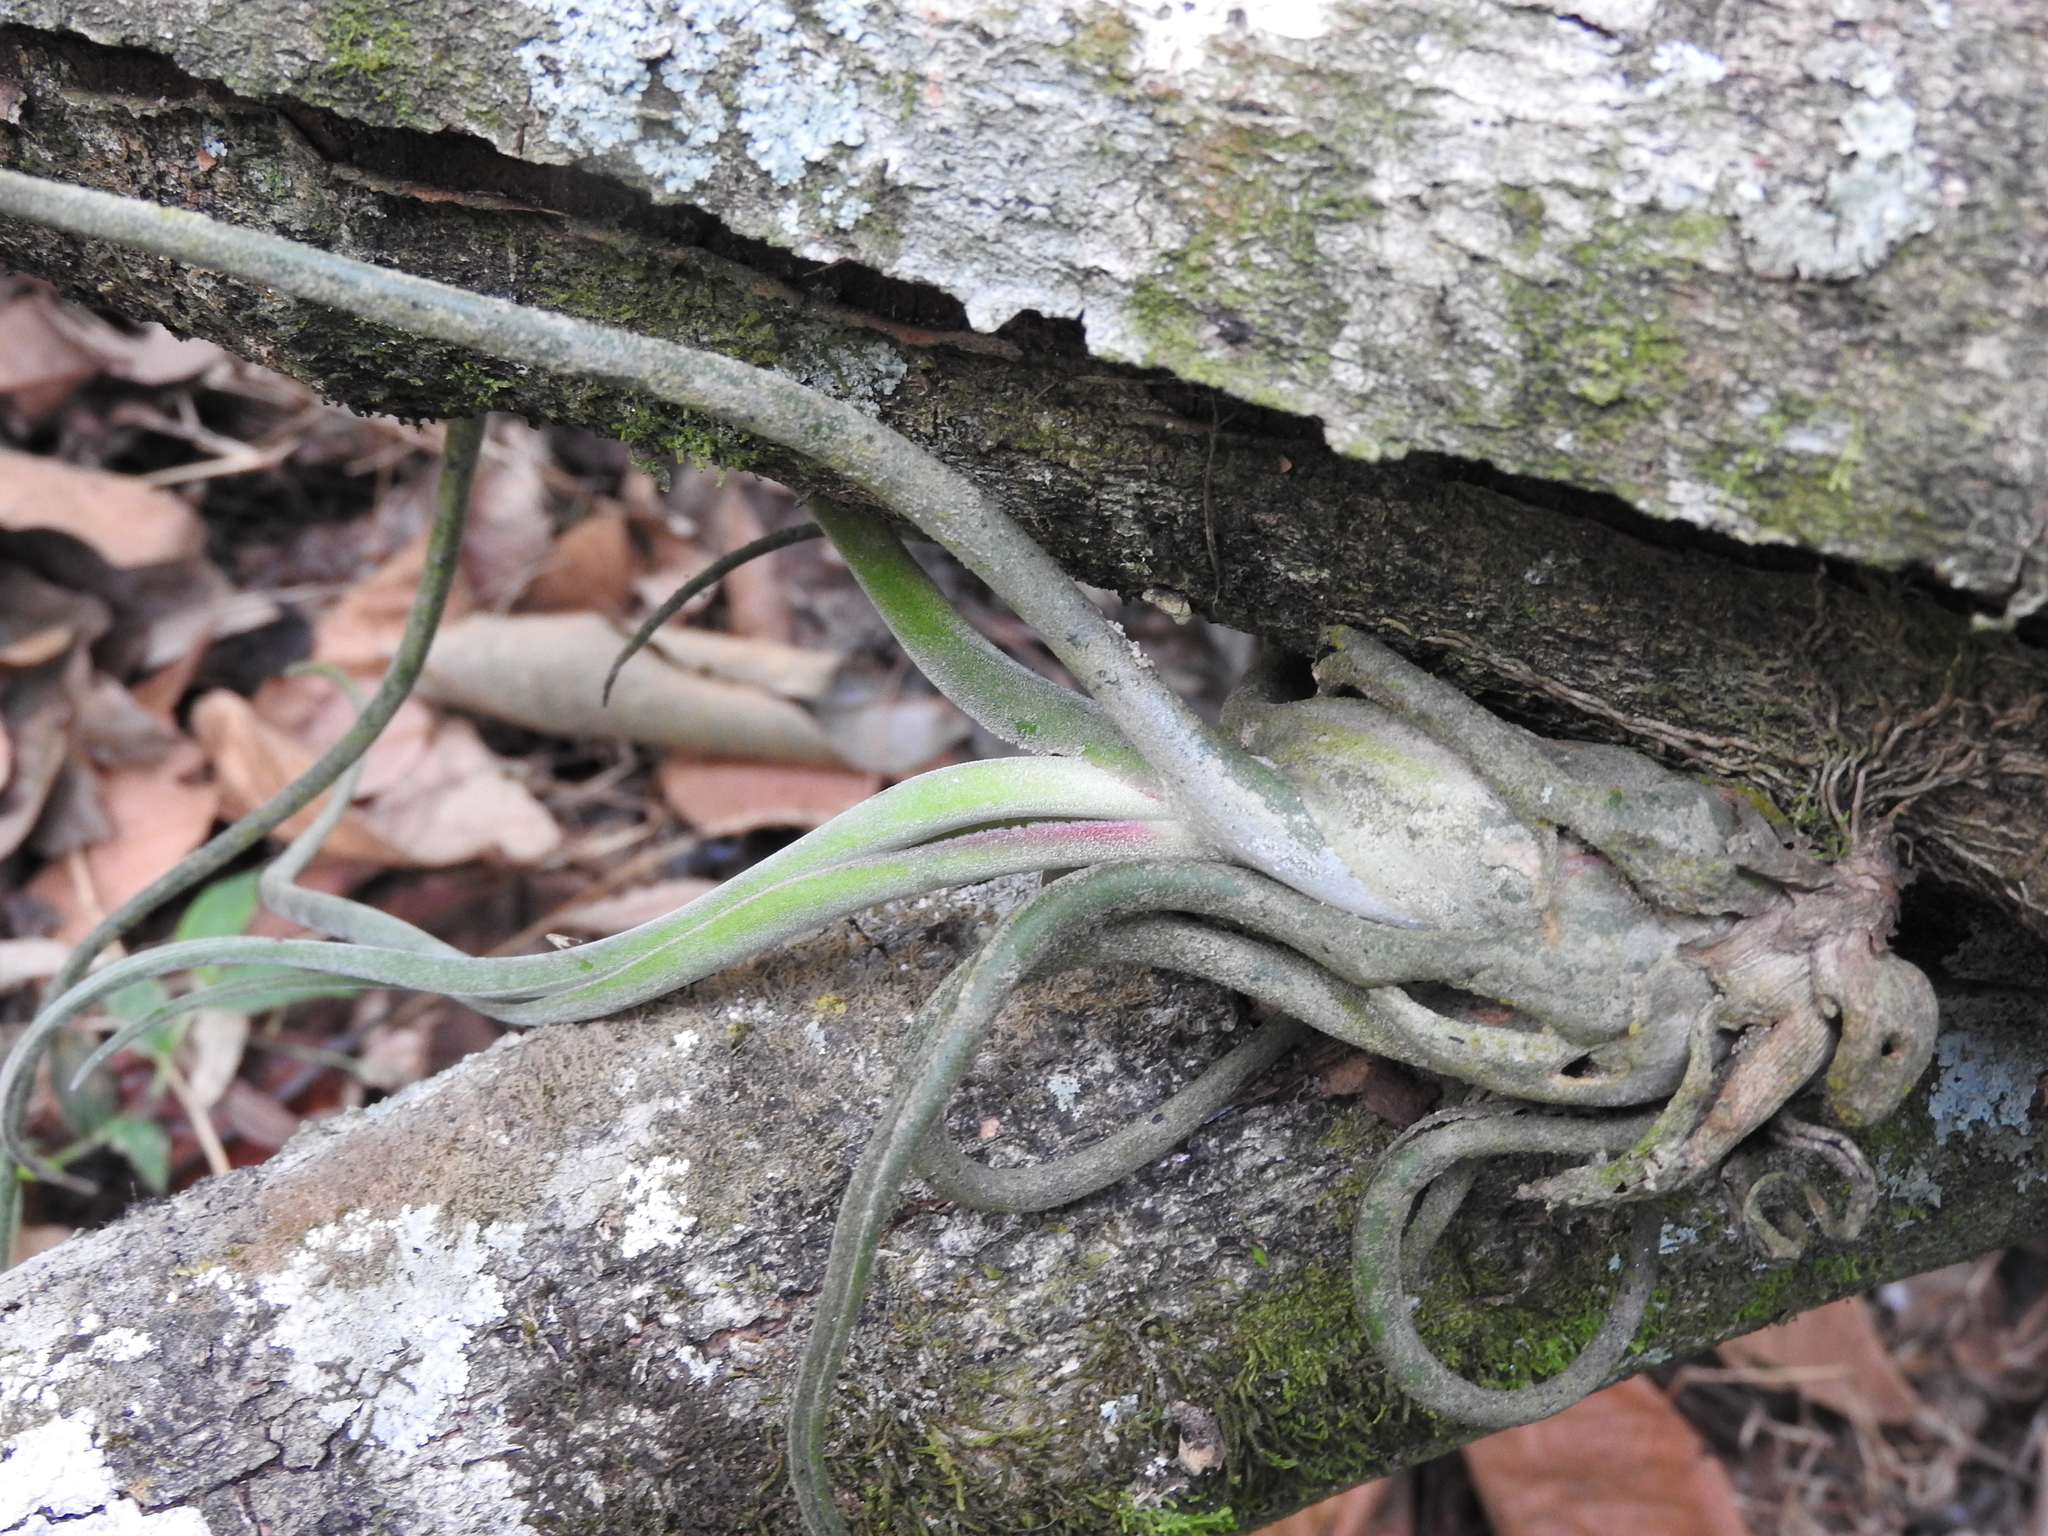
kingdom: Plantae
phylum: Tracheophyta
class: Liliopsida
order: Poales
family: Bromeliaceae
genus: Tillandsia
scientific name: Tillandsia caput-medusae
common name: Octopus plant
